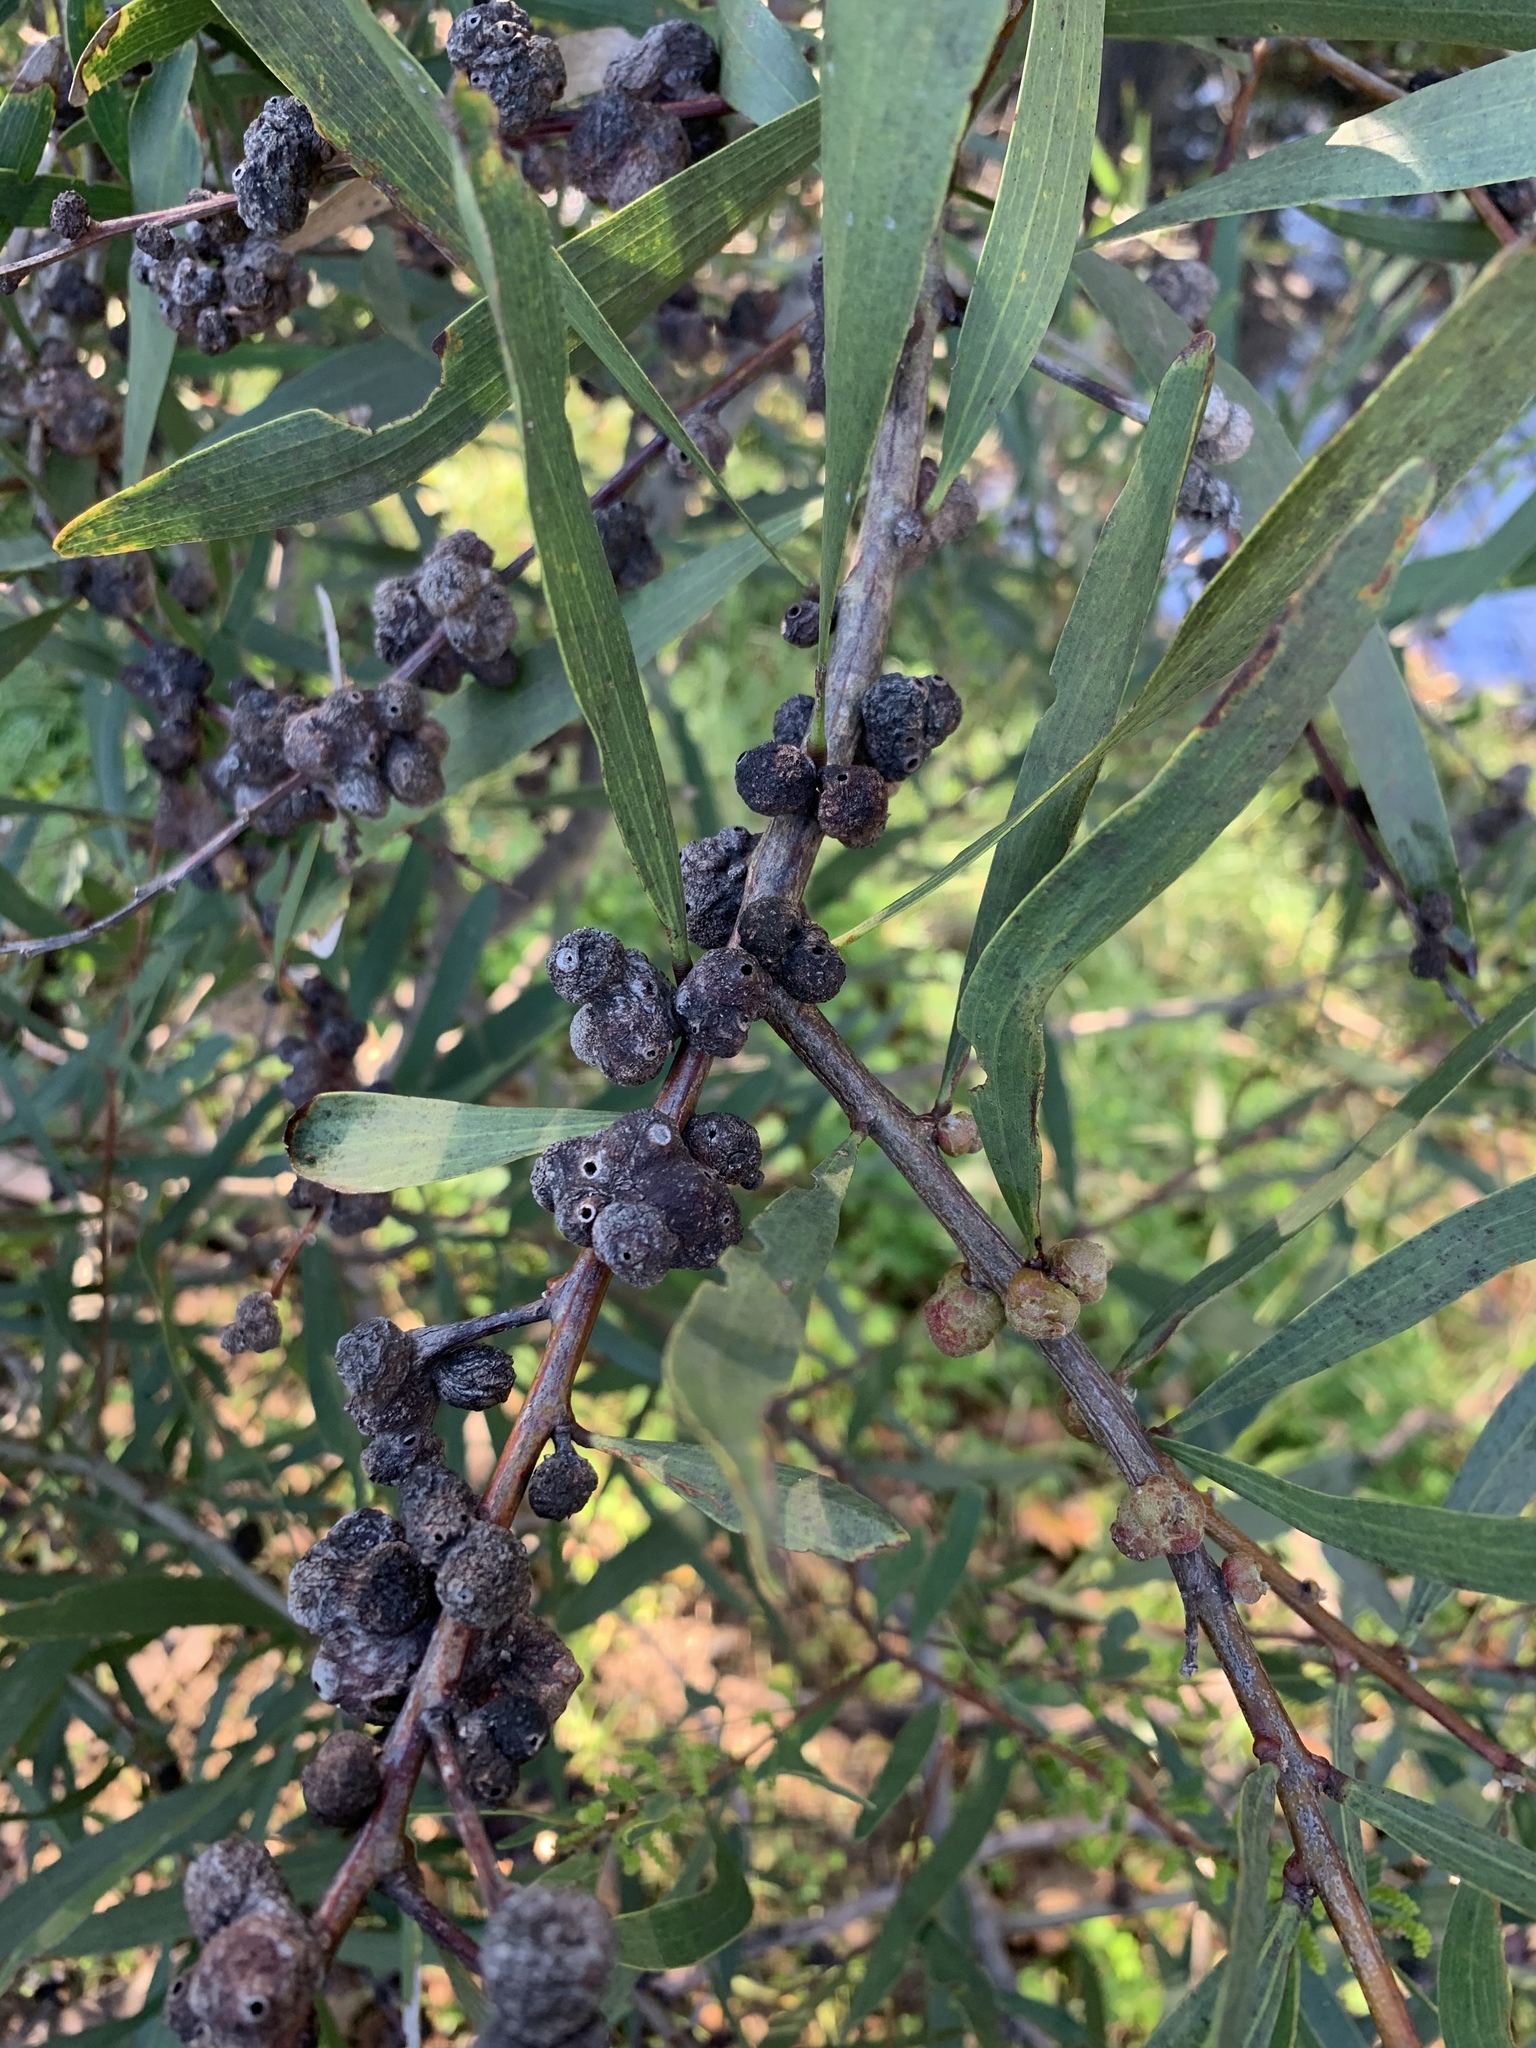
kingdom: Animalia
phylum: Arthropoda
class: Insecta
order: Hymenoptera
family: Pteromalidae
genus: Trichilogaster
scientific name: Trichilogaster acaciaelongifoliae
